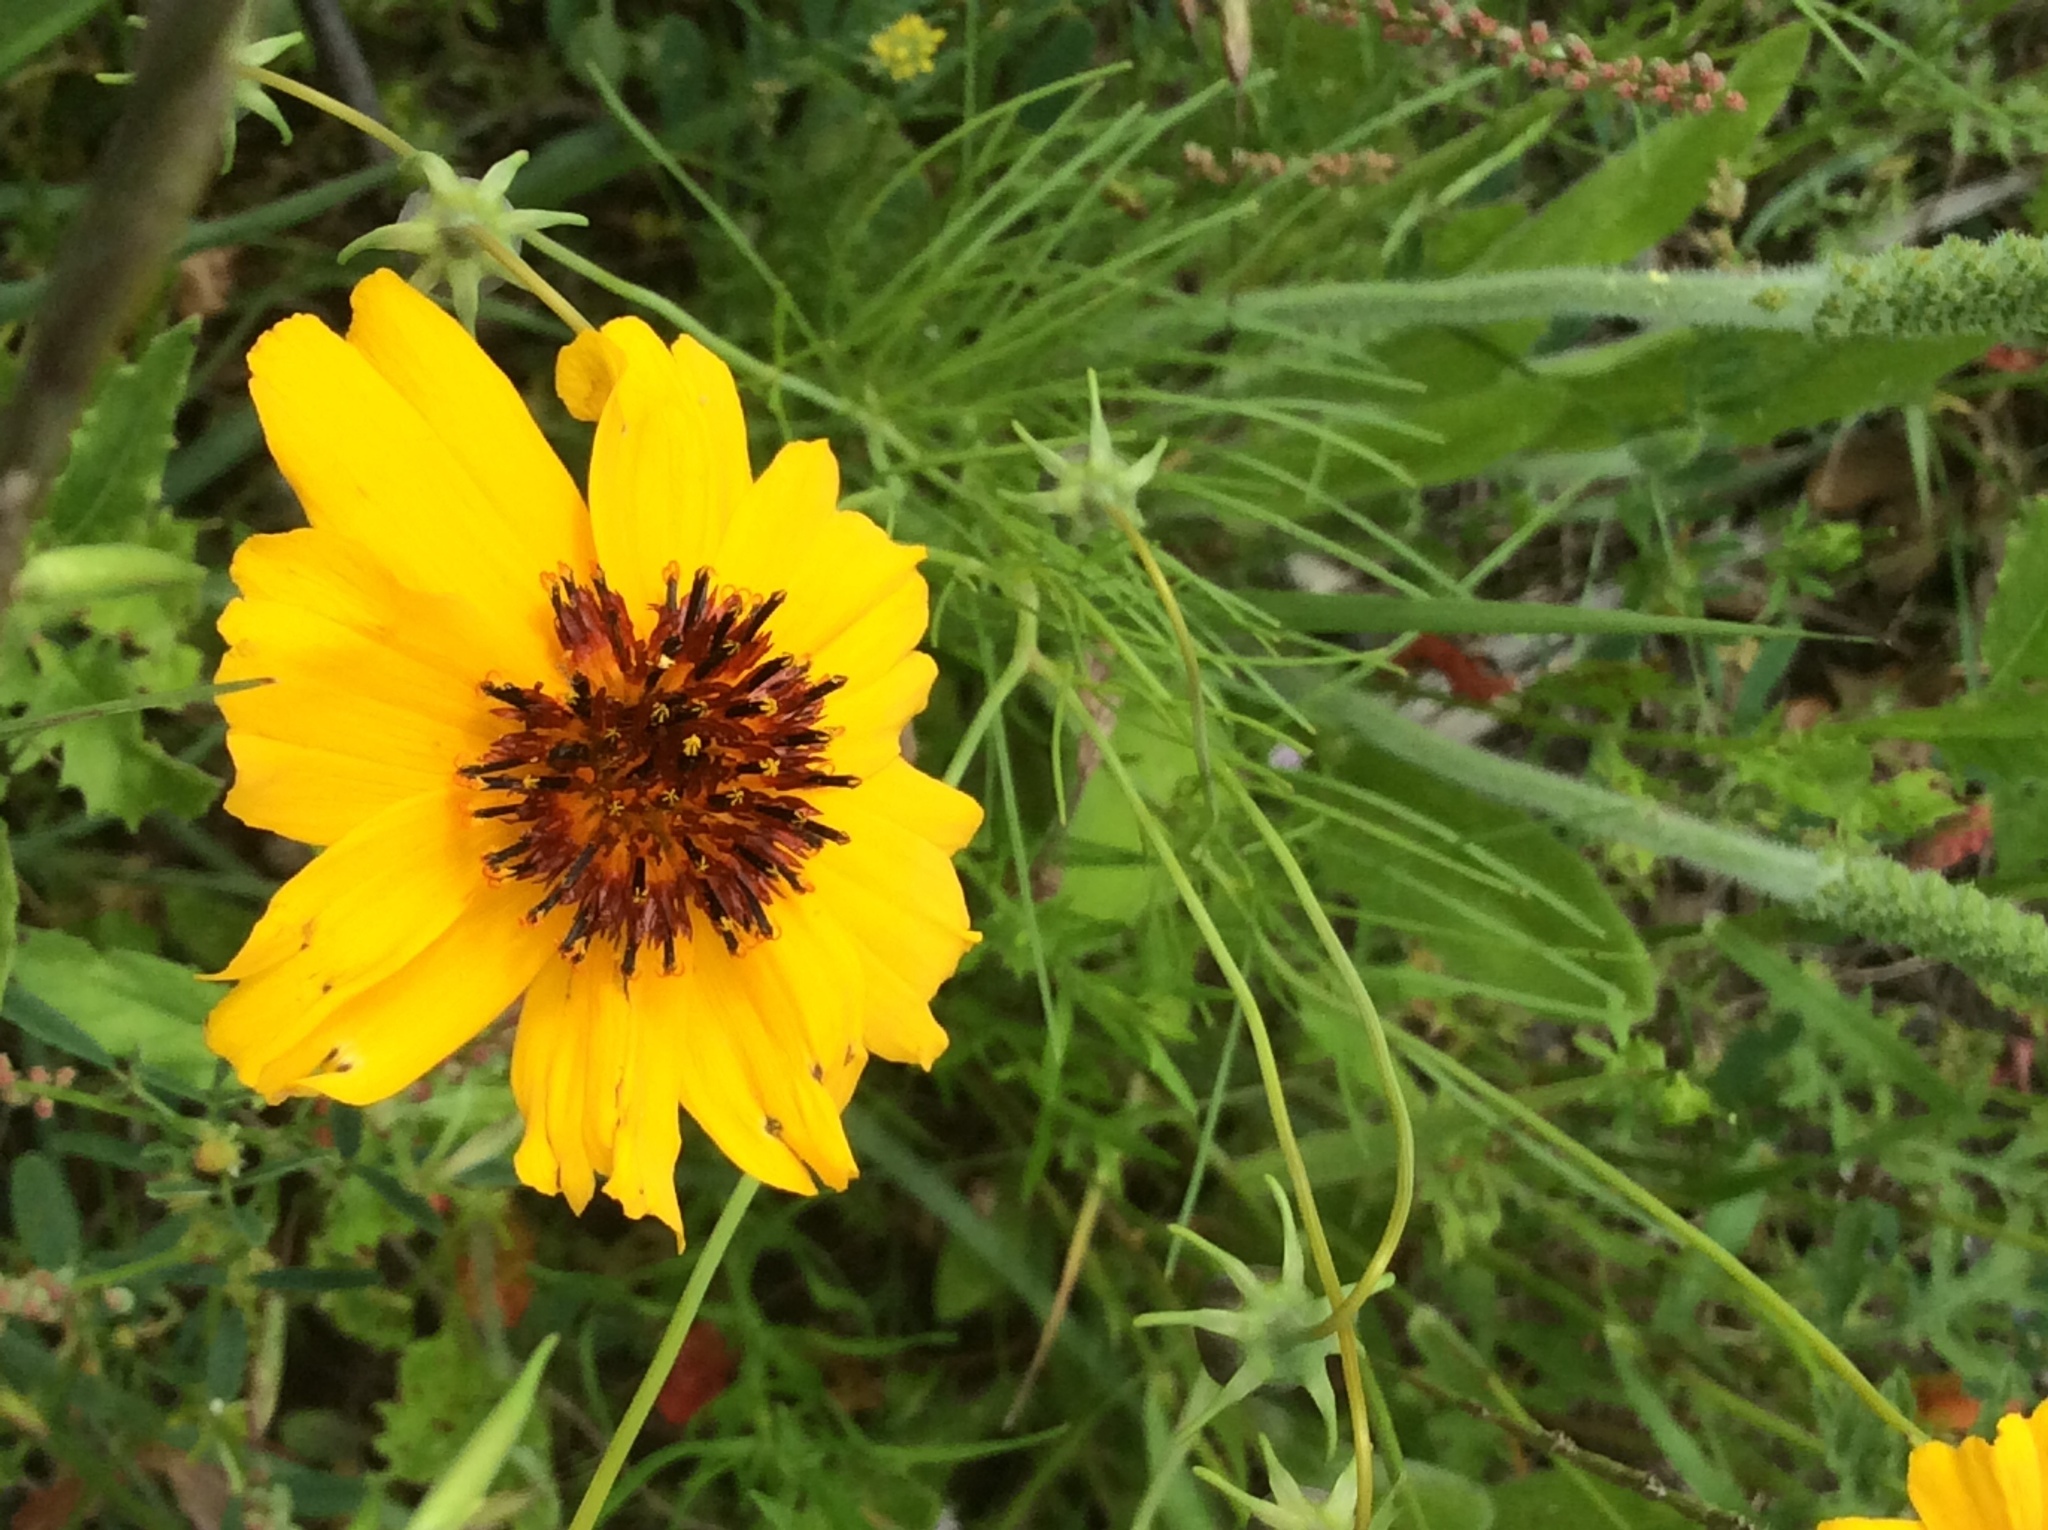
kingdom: Plantae
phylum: Tracheophyta
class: Magnoliopsida
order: Asterales
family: Asteraceae
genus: Thelesperma
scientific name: Thelesperma filifolium
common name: Stiff greenthread
